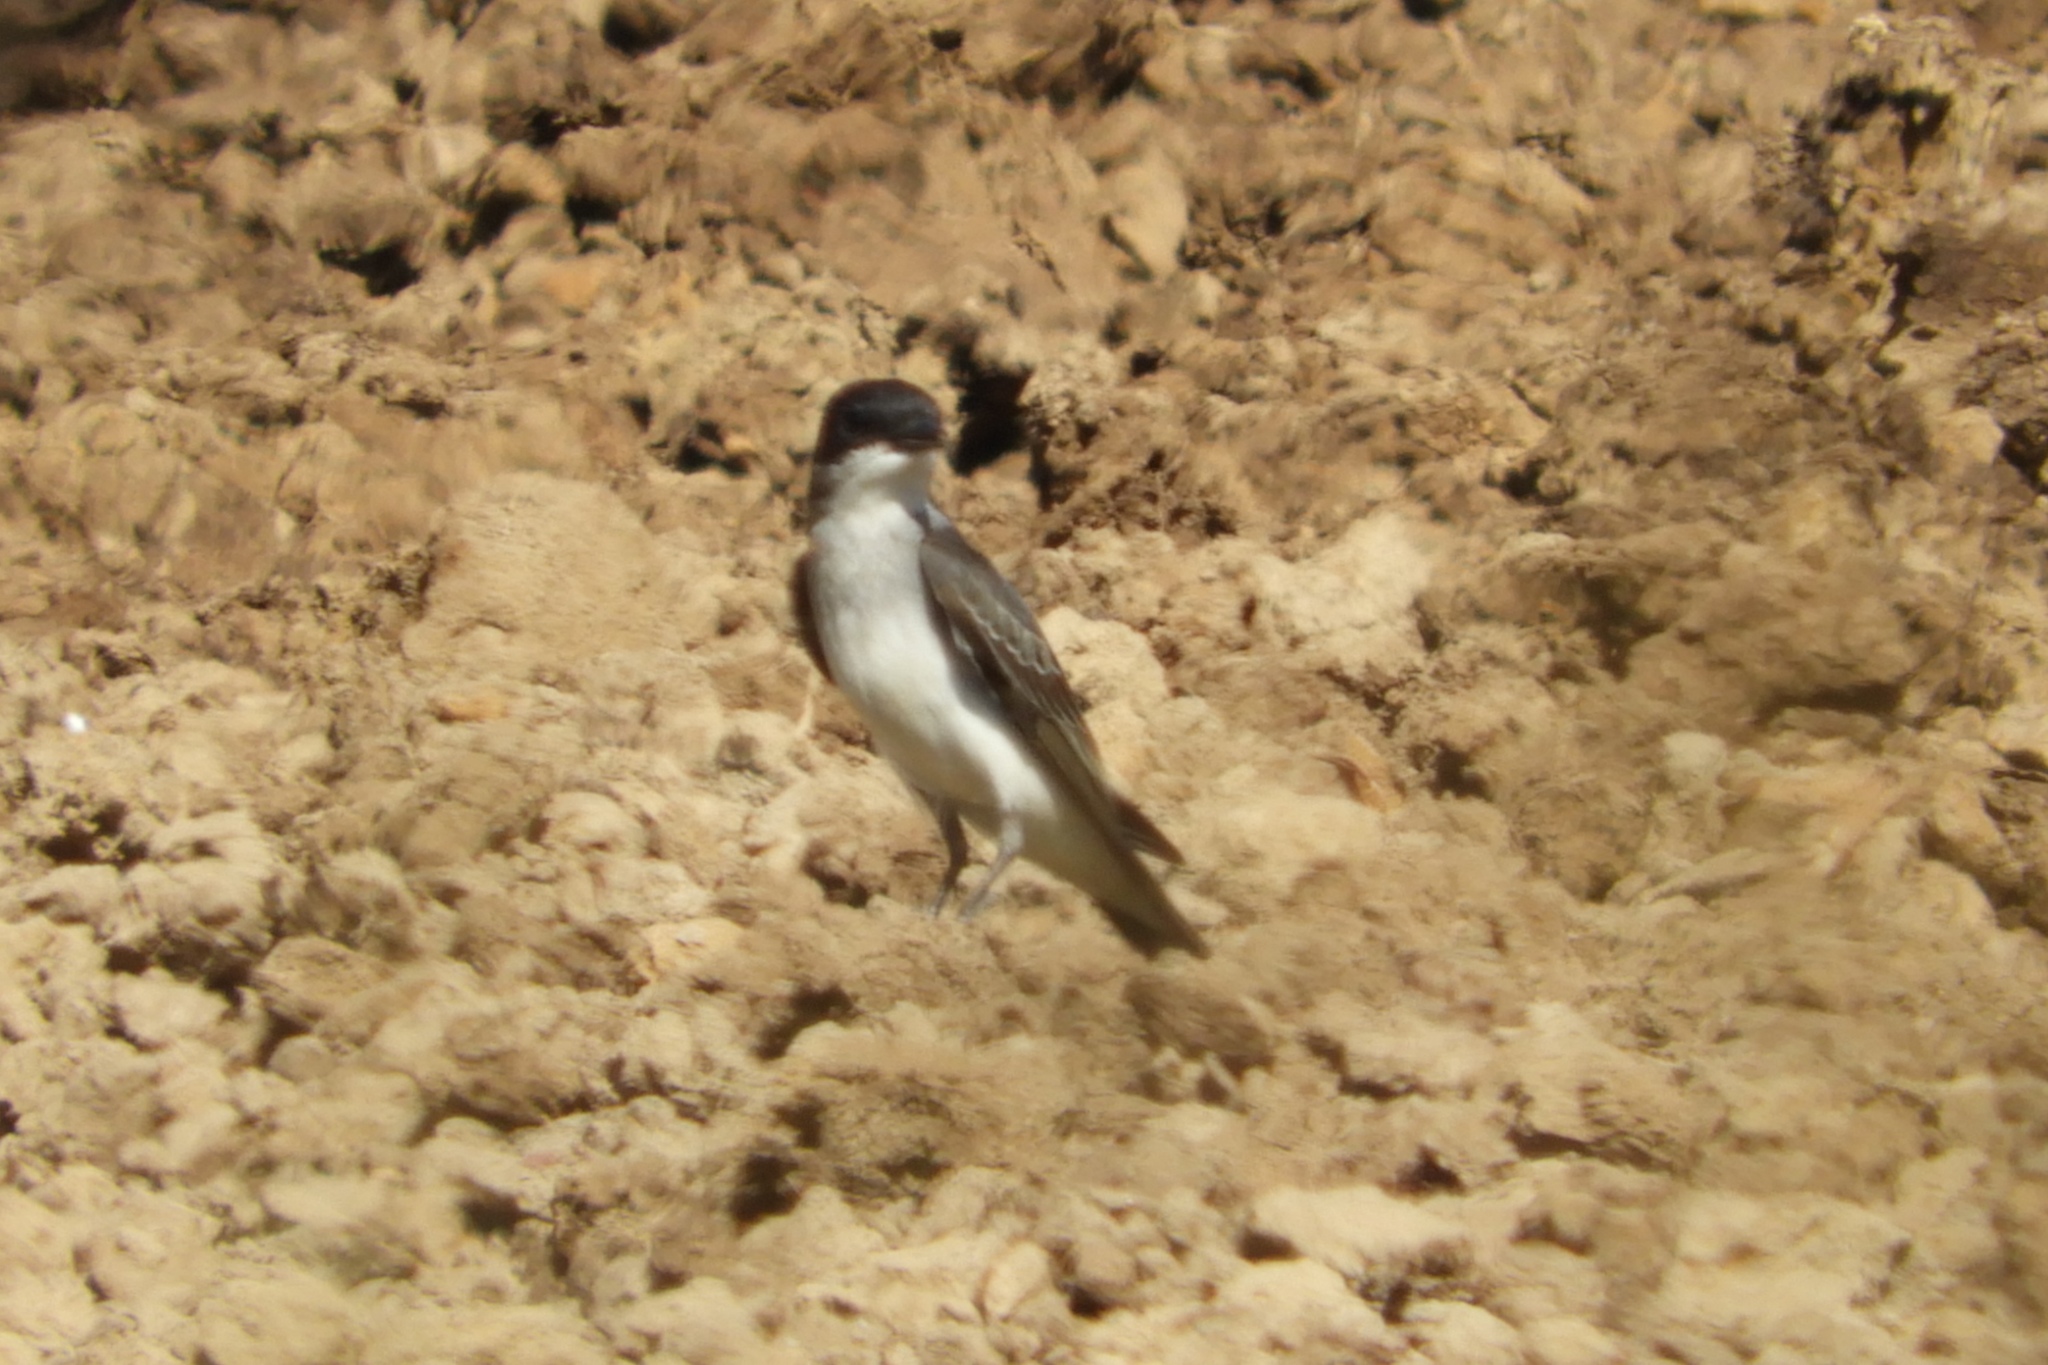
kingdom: Animalia
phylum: Chordata
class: Aves
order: Passeriformes
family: Tyrannidae
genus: Tyrannus
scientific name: Tyrannus tyrannus
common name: Eastern kingbird
